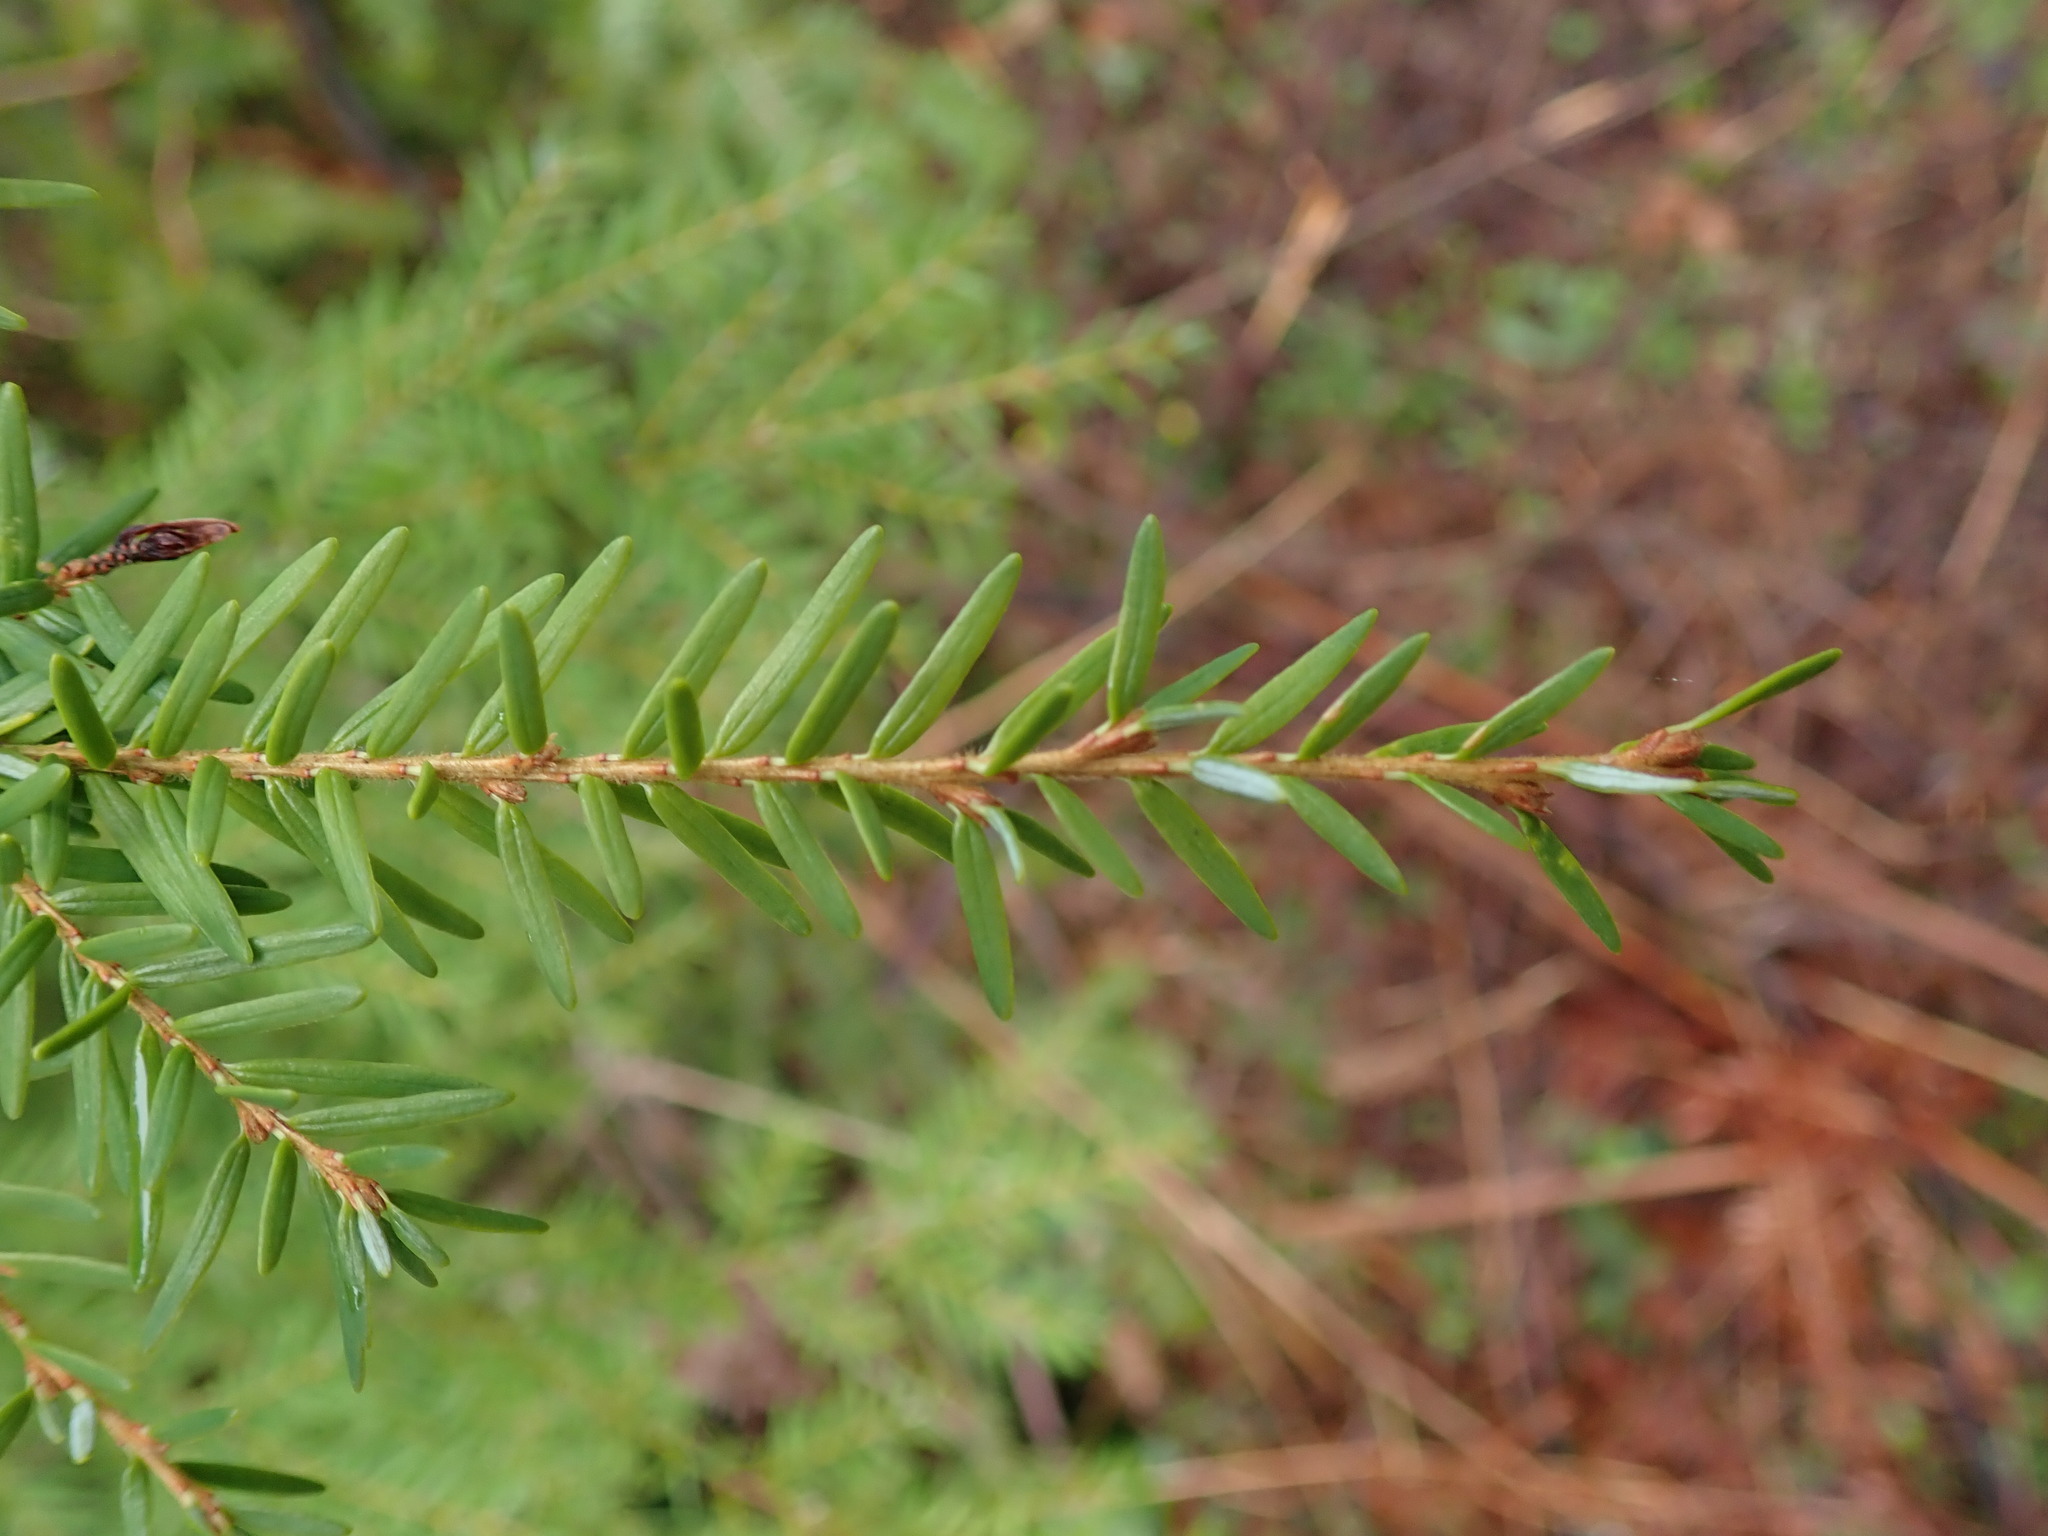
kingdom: Plantae
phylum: Tracheophyta
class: Pinopsida
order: Pinales
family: Pinaceae
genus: Tsuga
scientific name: Tsuga heterophylla
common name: Western hemlock
